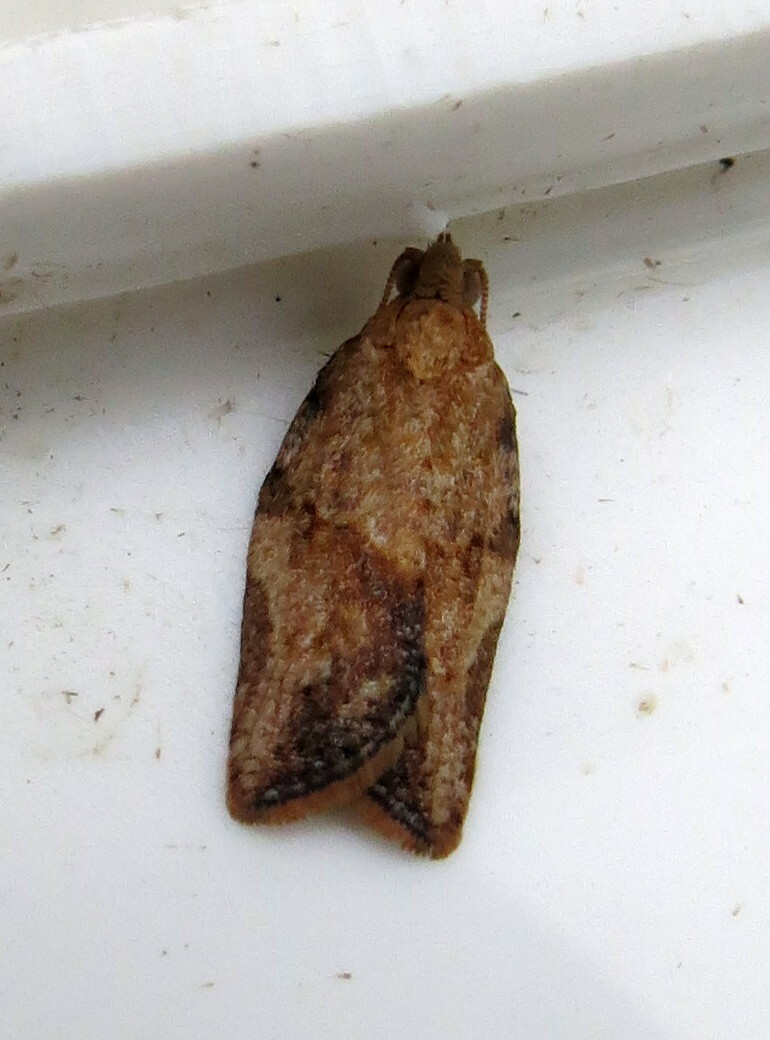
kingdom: Animalia
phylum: Arthropoda
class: Insecta
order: Lepidoptera
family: Tortricidae
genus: Epiphyas
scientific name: Epiphyas postvittana
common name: Light brown apple moth
